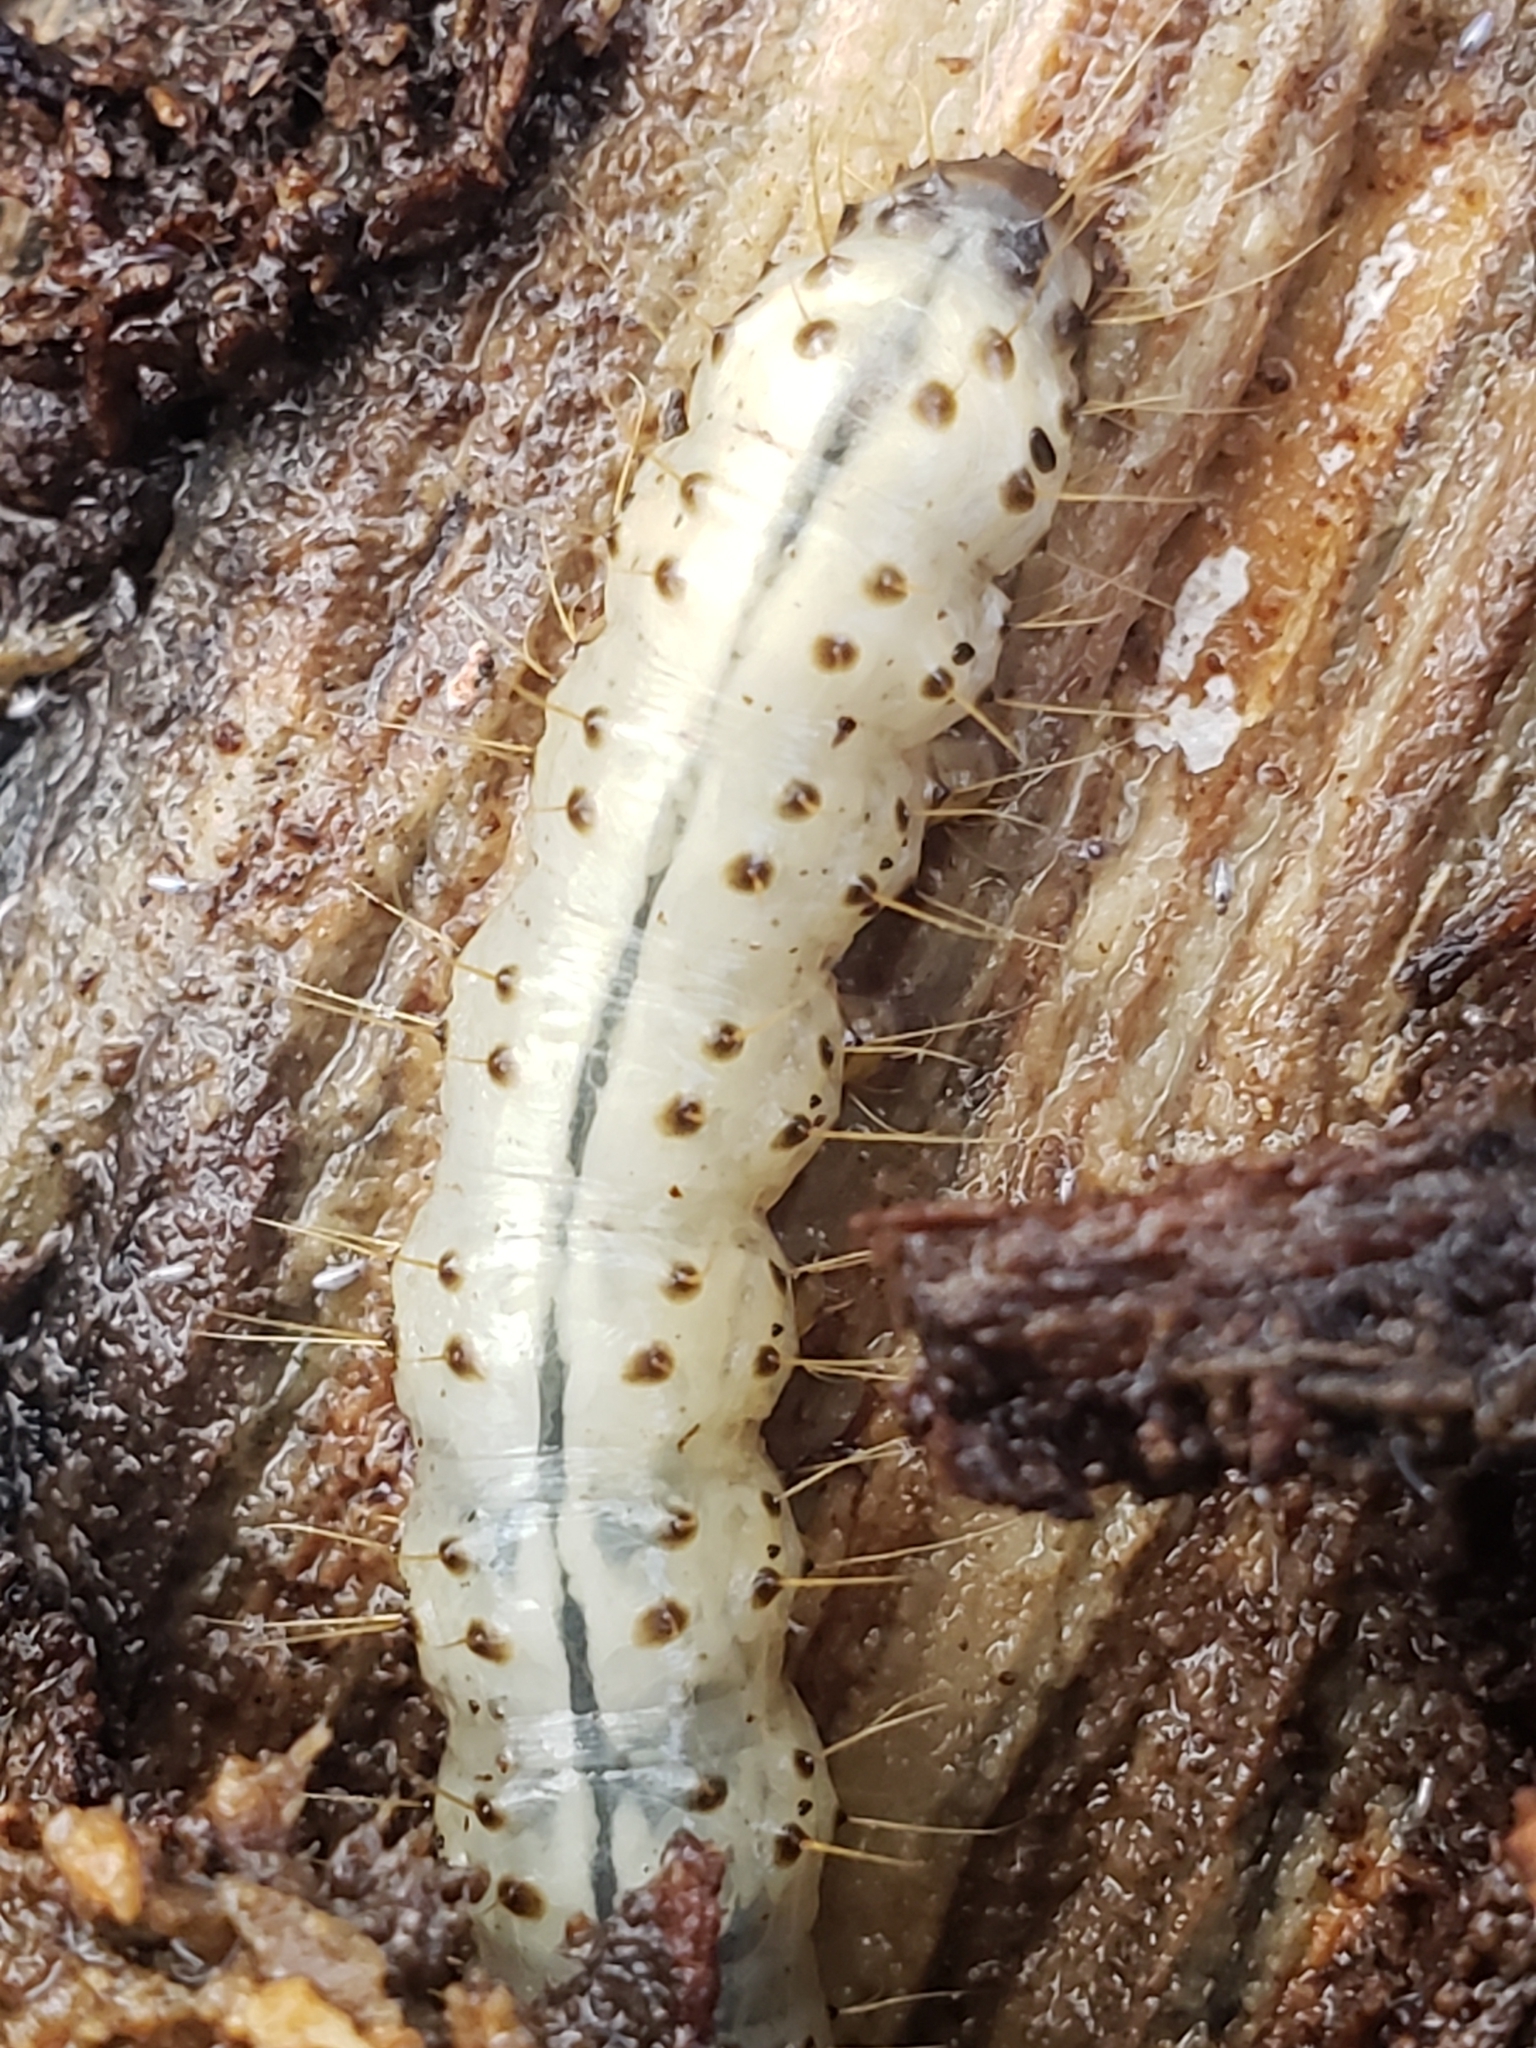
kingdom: Animalia
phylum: Arthropoda
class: Insecta
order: Lepidoptera
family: Erebidae
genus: Scolecocampa
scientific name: Scolecocampa liburna
